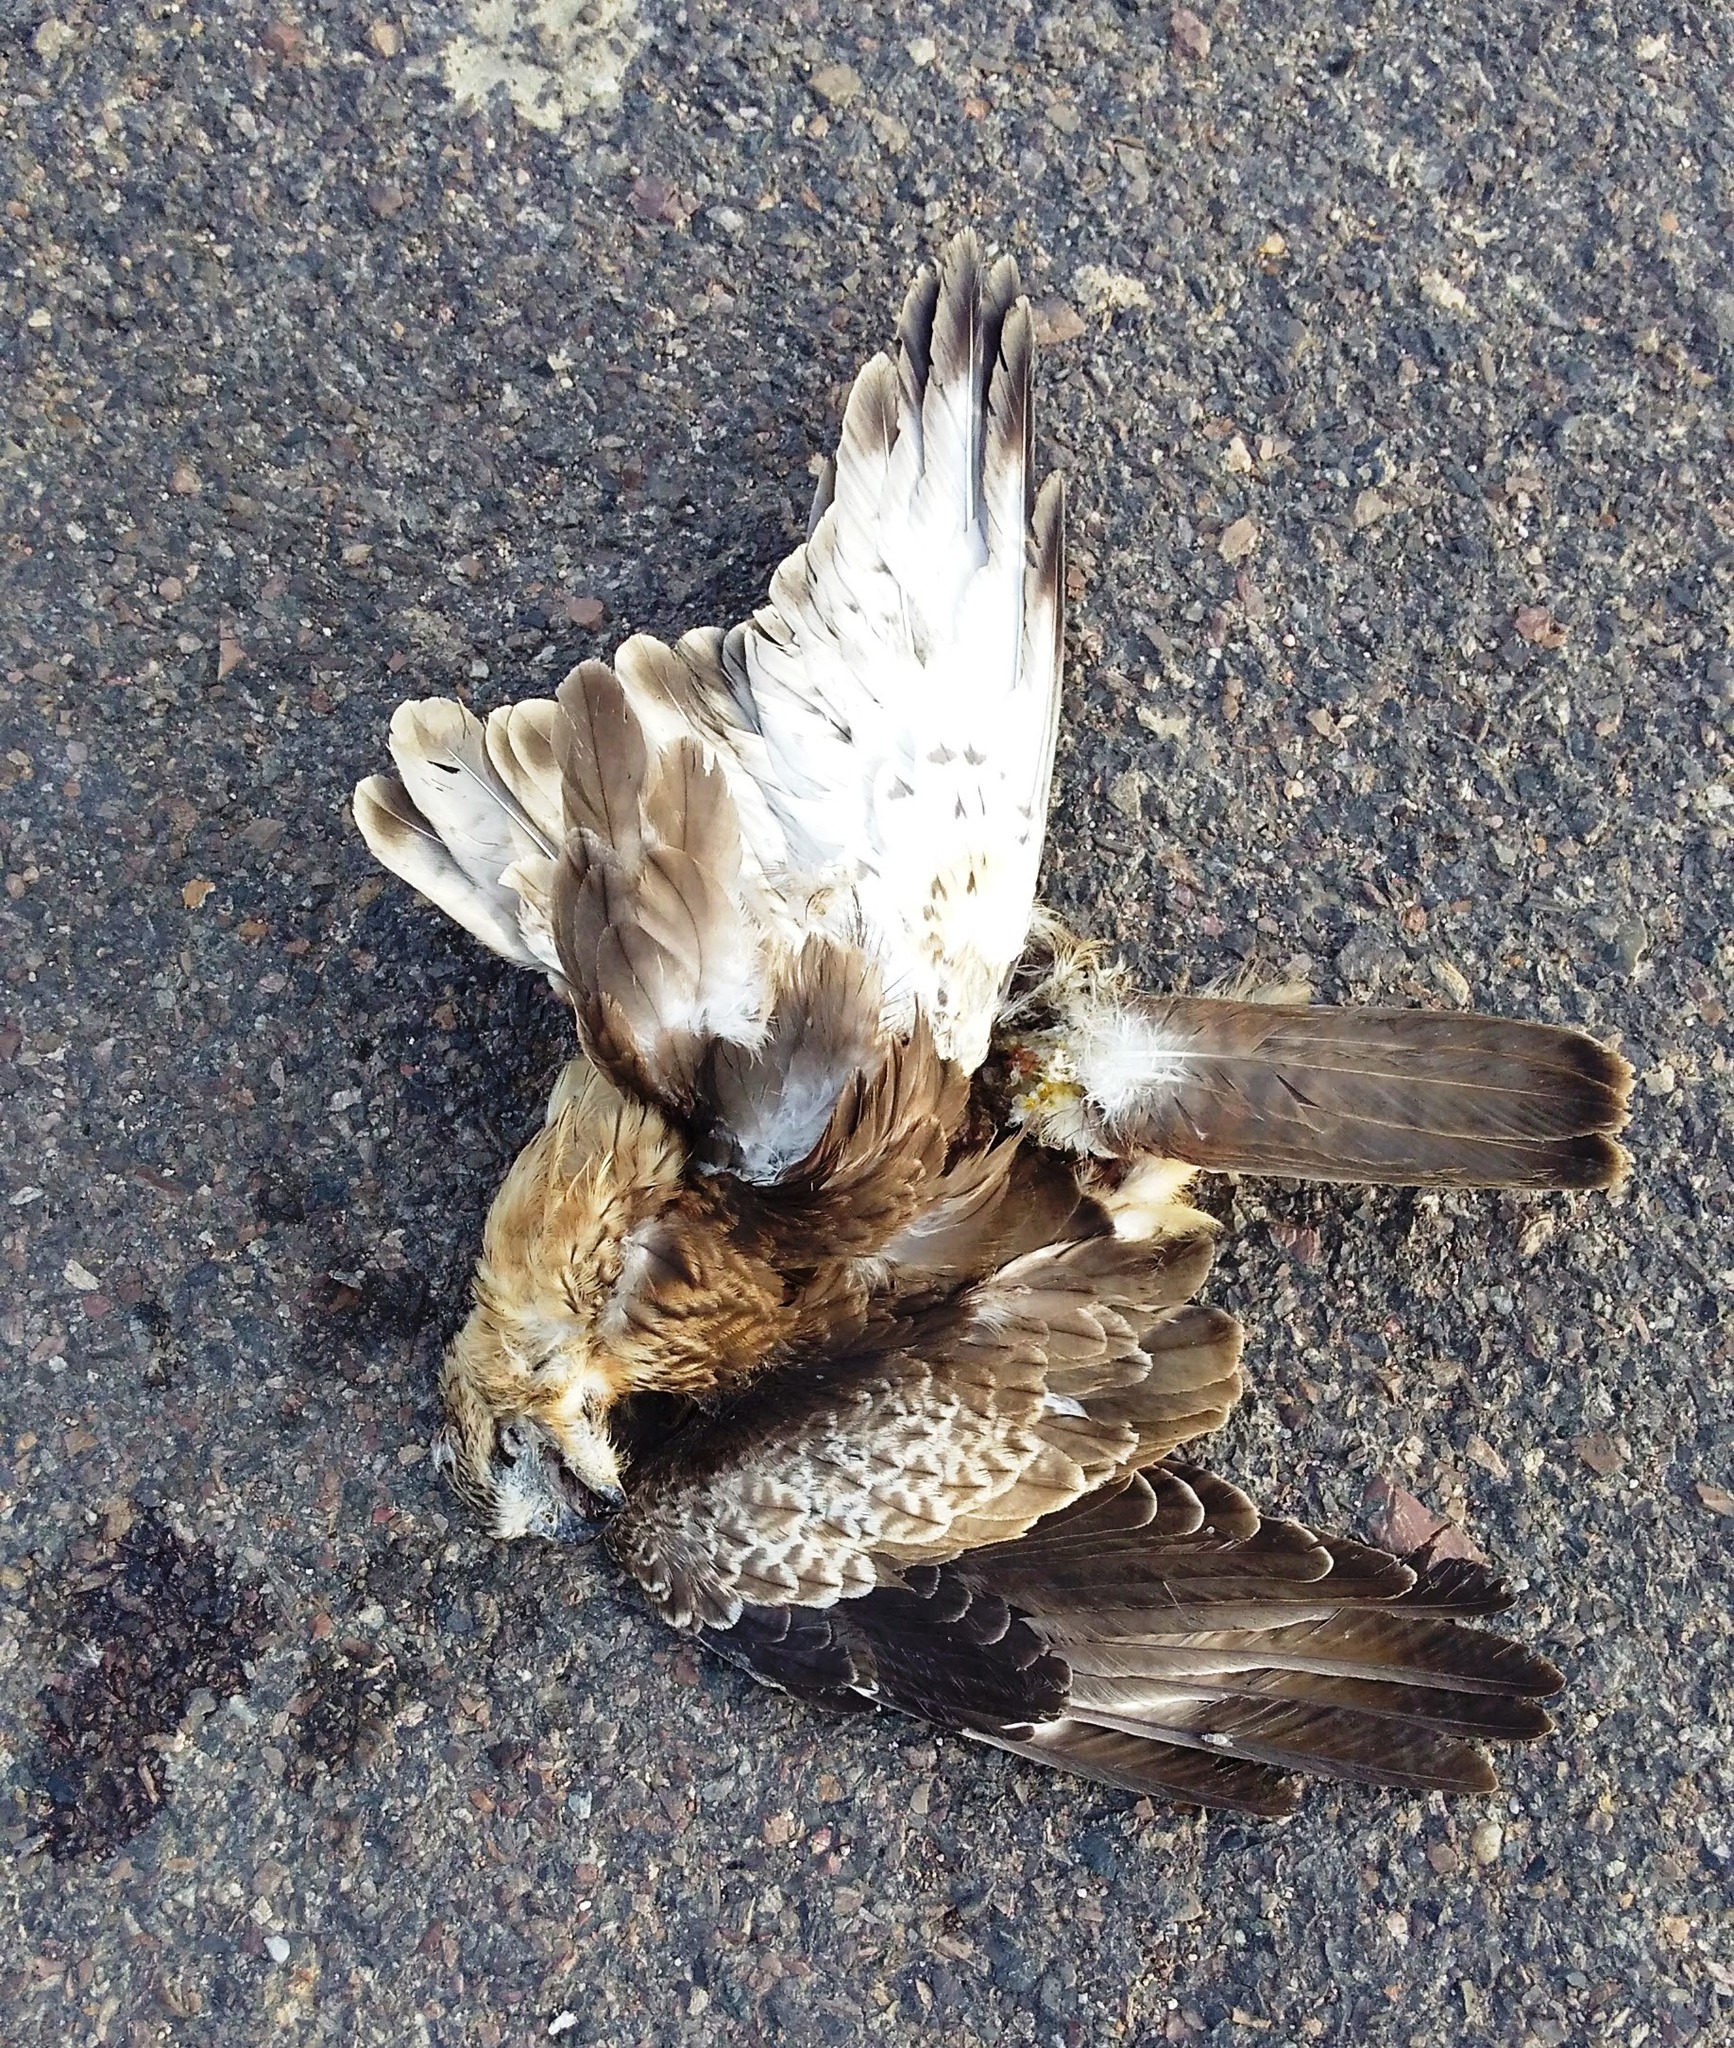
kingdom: Animalia
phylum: Chordata
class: Aves
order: Accipitriformes
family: Accipitridae
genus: Butastur
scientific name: Butastur teesa
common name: White-eyed buzzard
